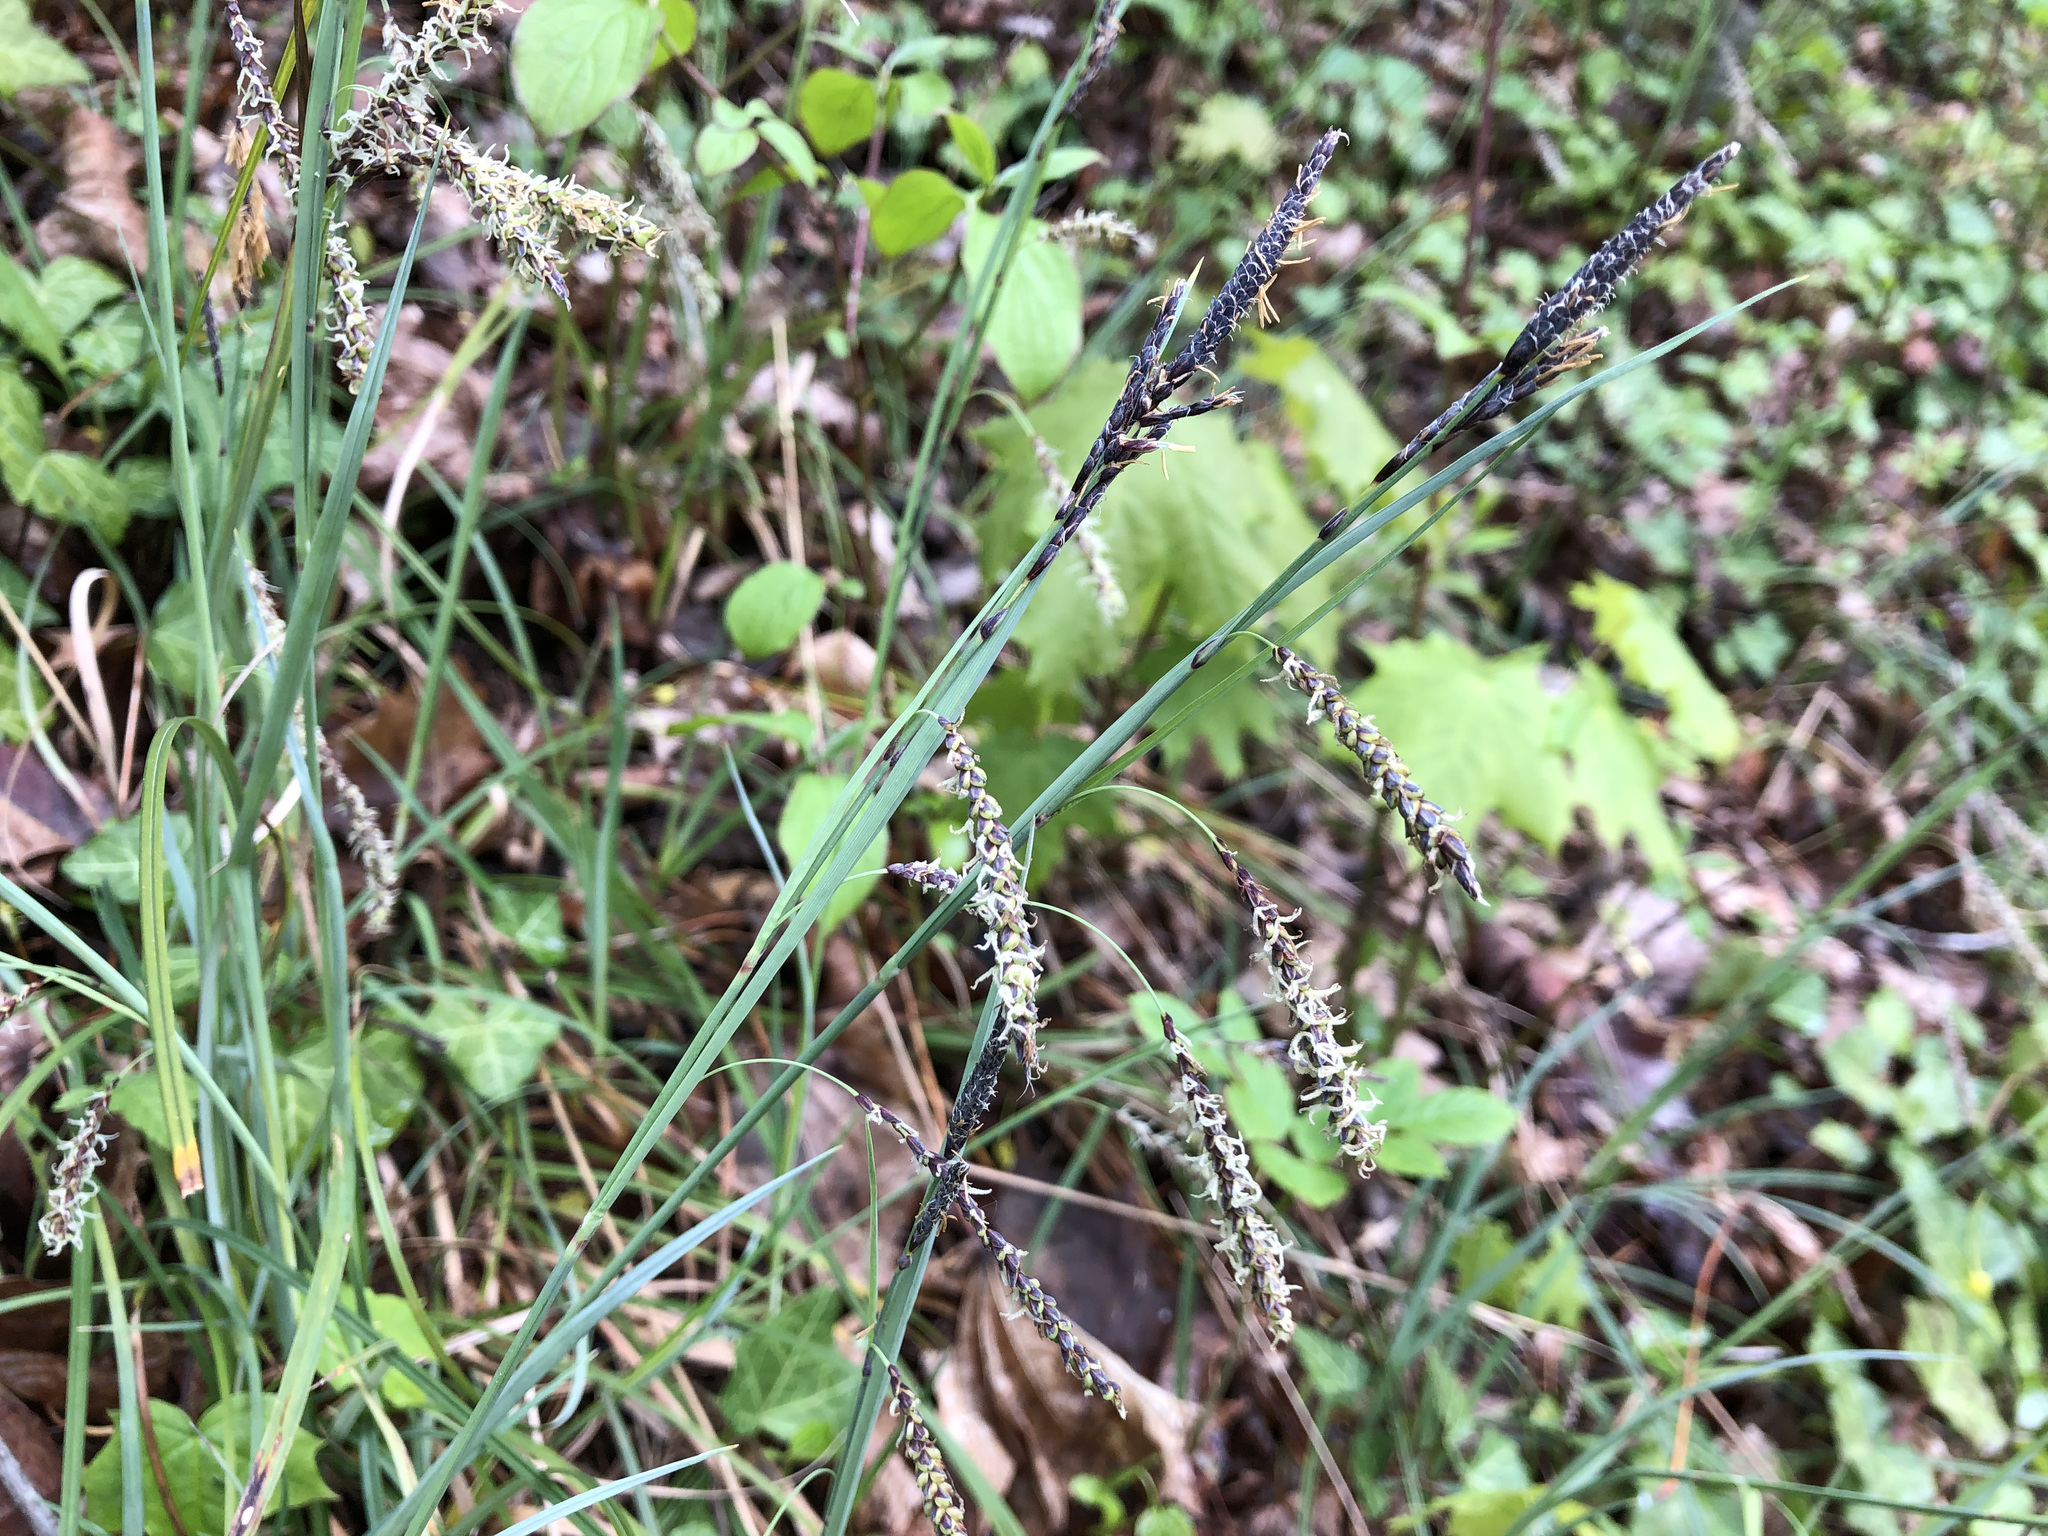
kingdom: Plantae
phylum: Tracheophyta
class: Liliopsida
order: Poales
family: Cyperaceae
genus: Carex
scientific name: Carex flacca
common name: Glaucous sedge
